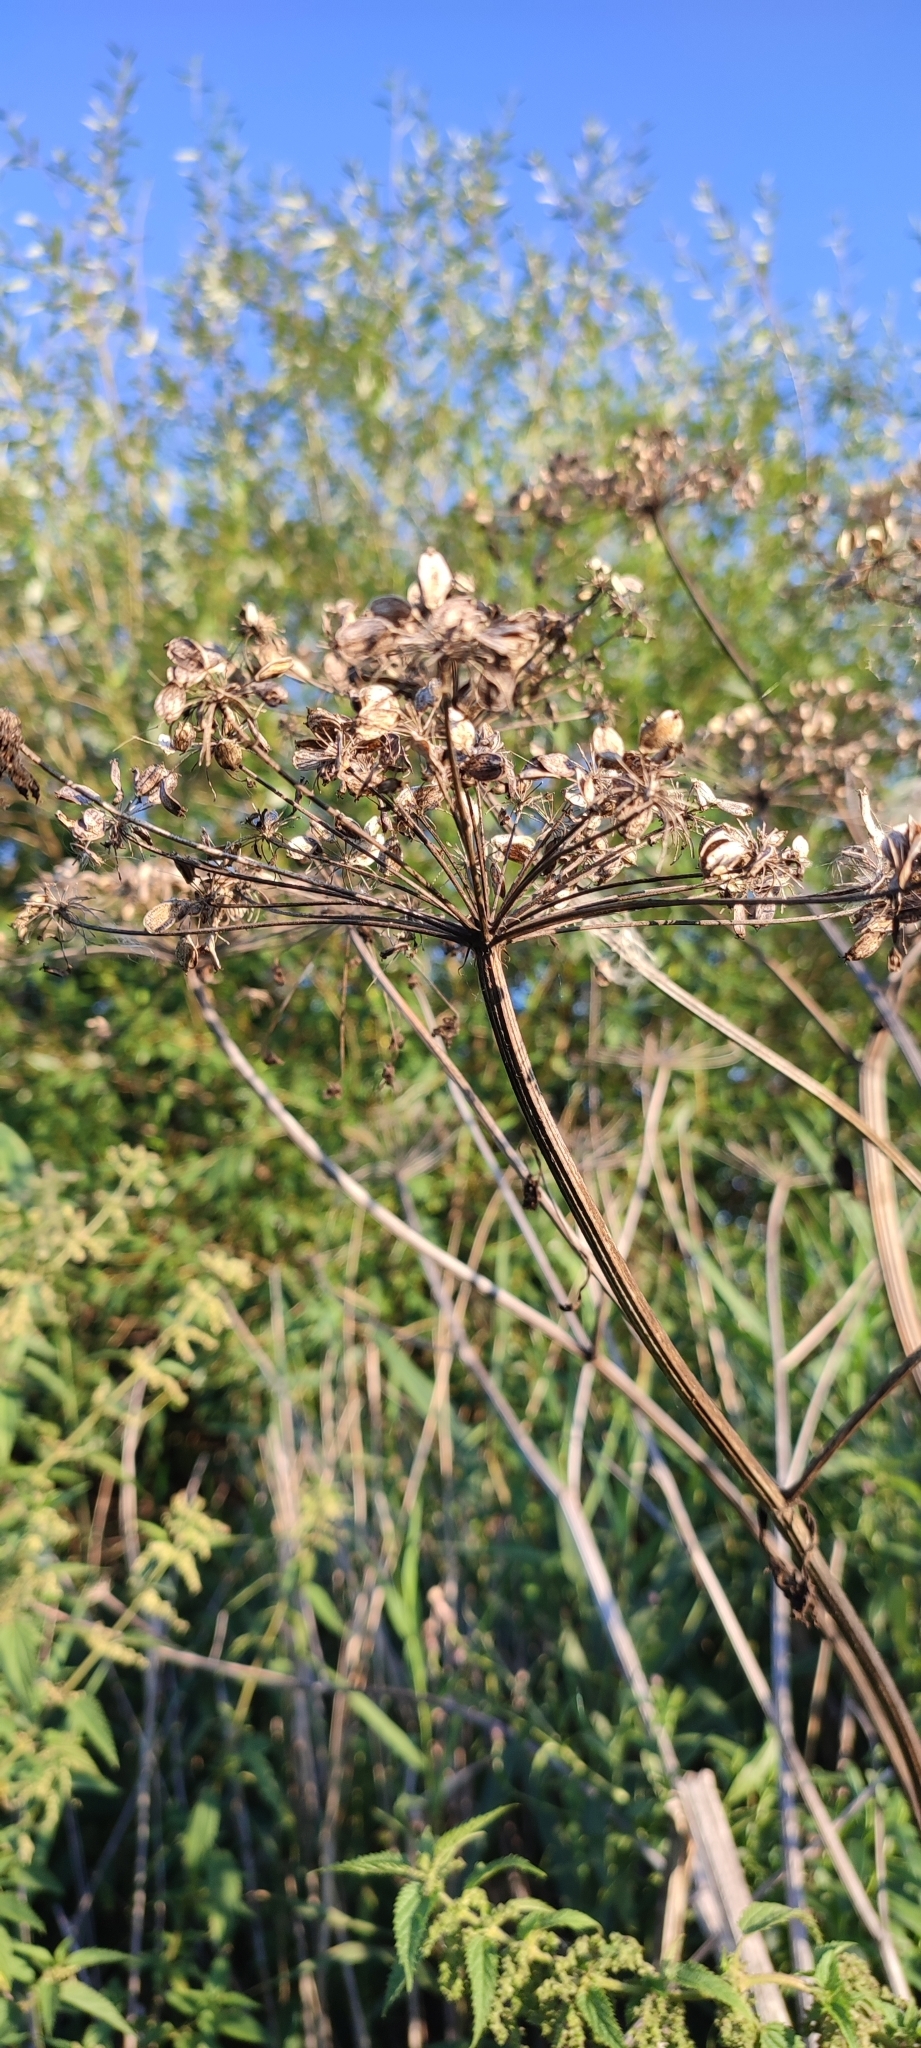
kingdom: Plantae
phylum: Tracheophyta
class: Magnoliopsida
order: Apiales
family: Apiaceae
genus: Heracleum
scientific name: Heracleum sphondylium
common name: Hogweed
